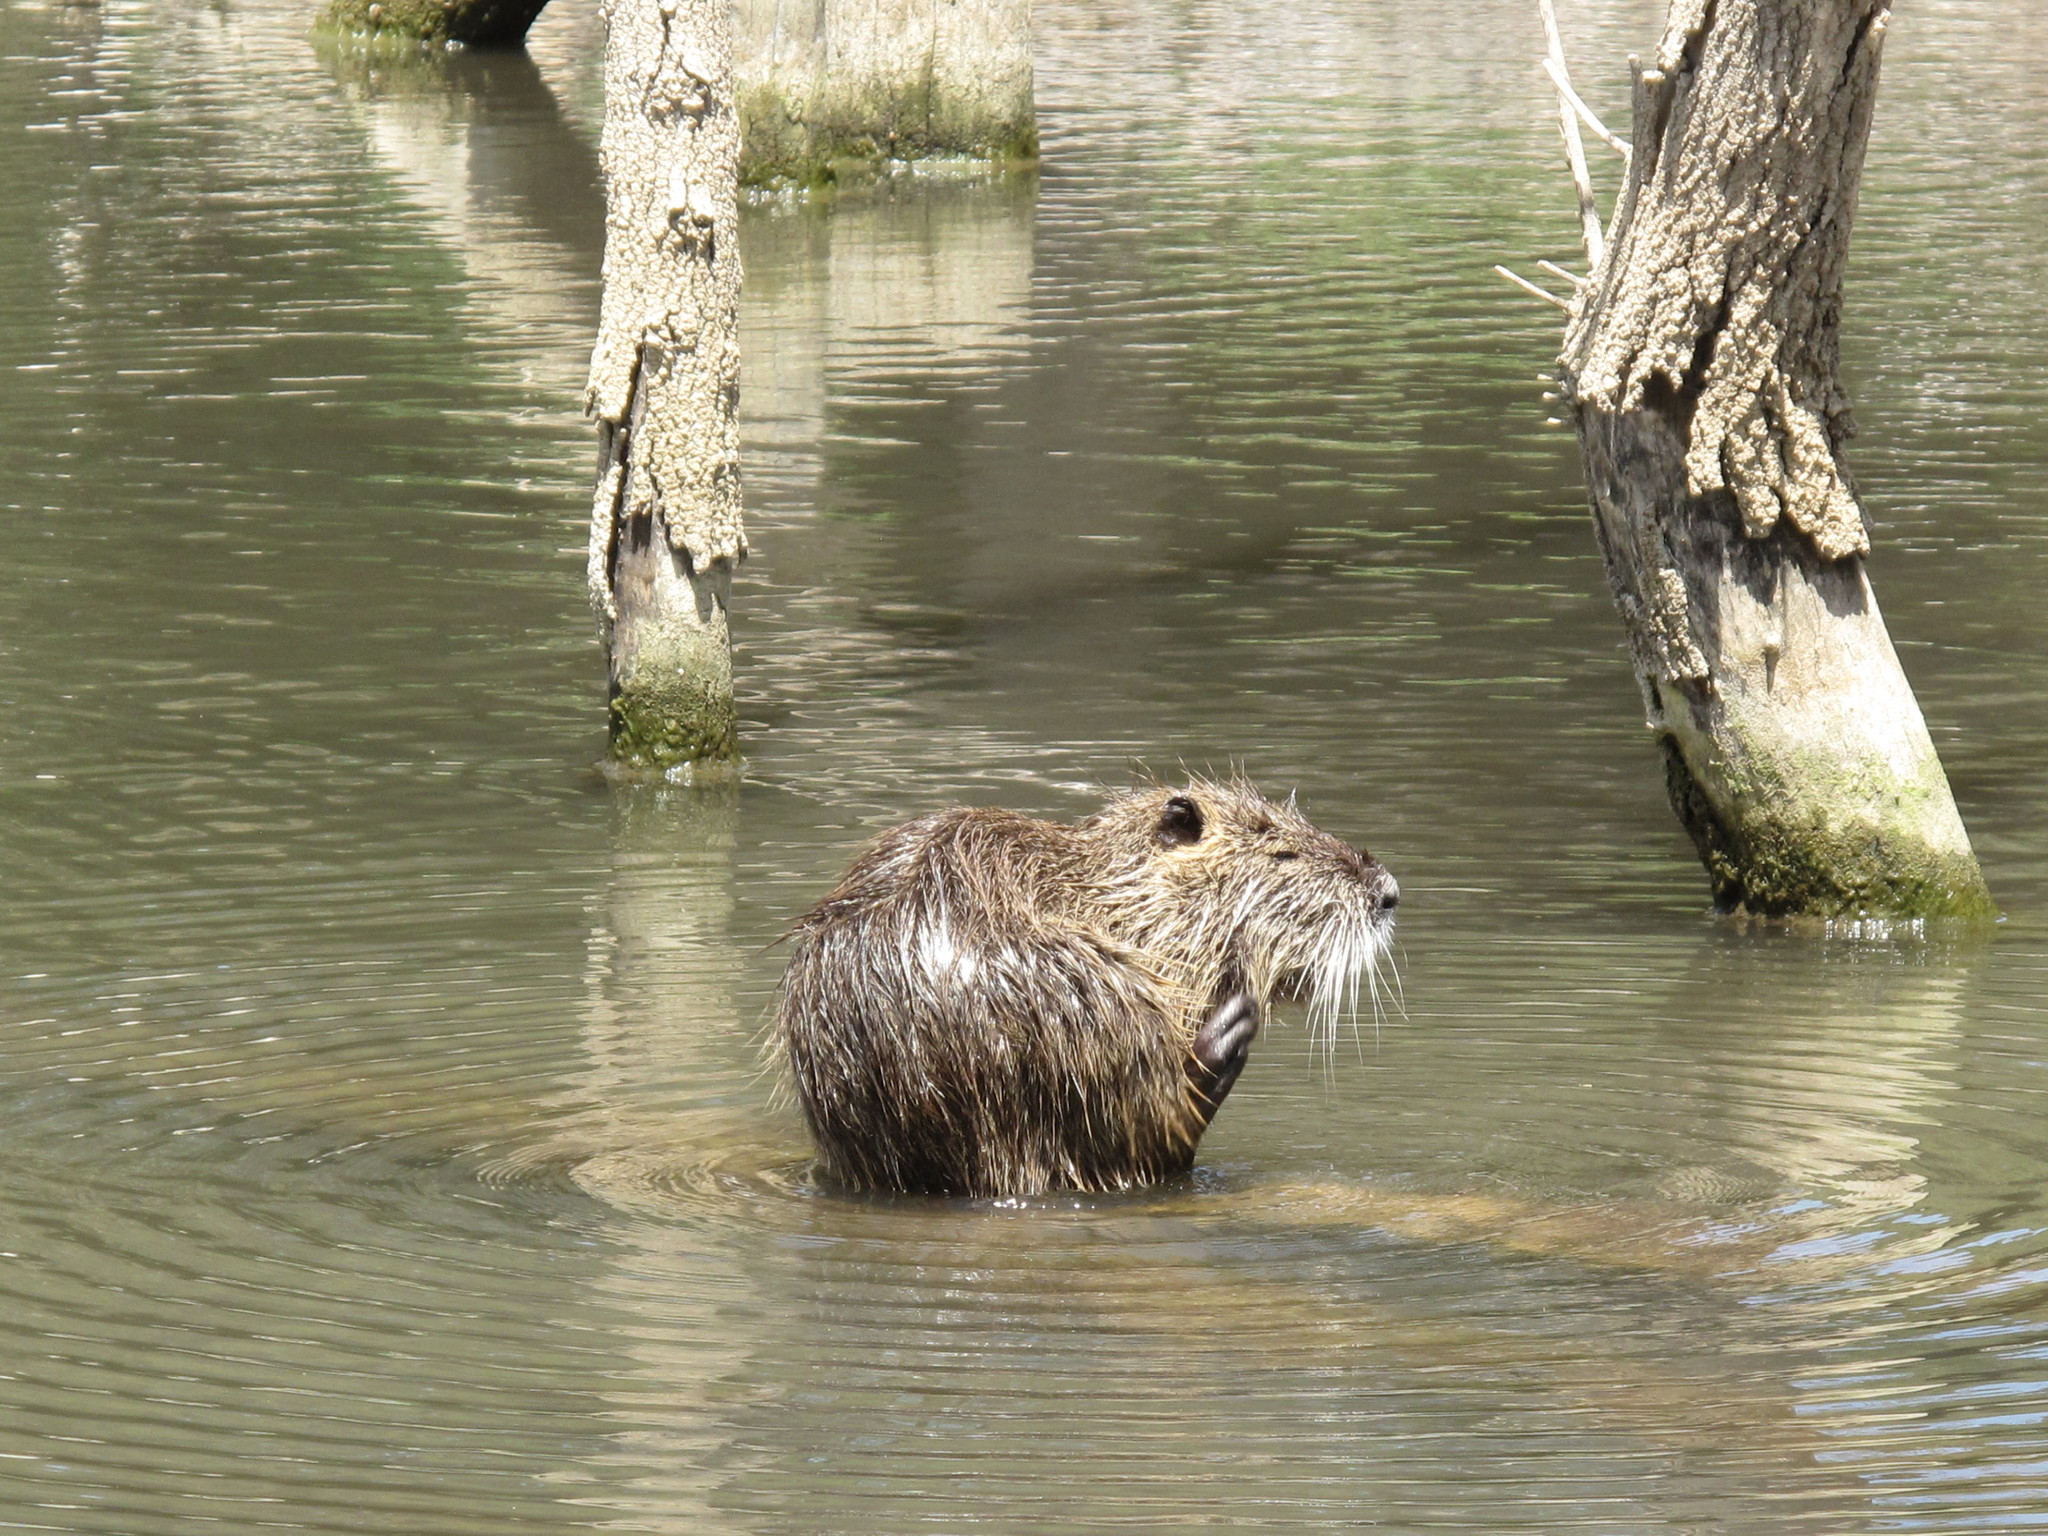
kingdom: Animalia
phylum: Chordata
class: Mammalia
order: Rodentia
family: Myocastoridae
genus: Myocastor
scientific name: Myocastor coypus
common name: Coypu
